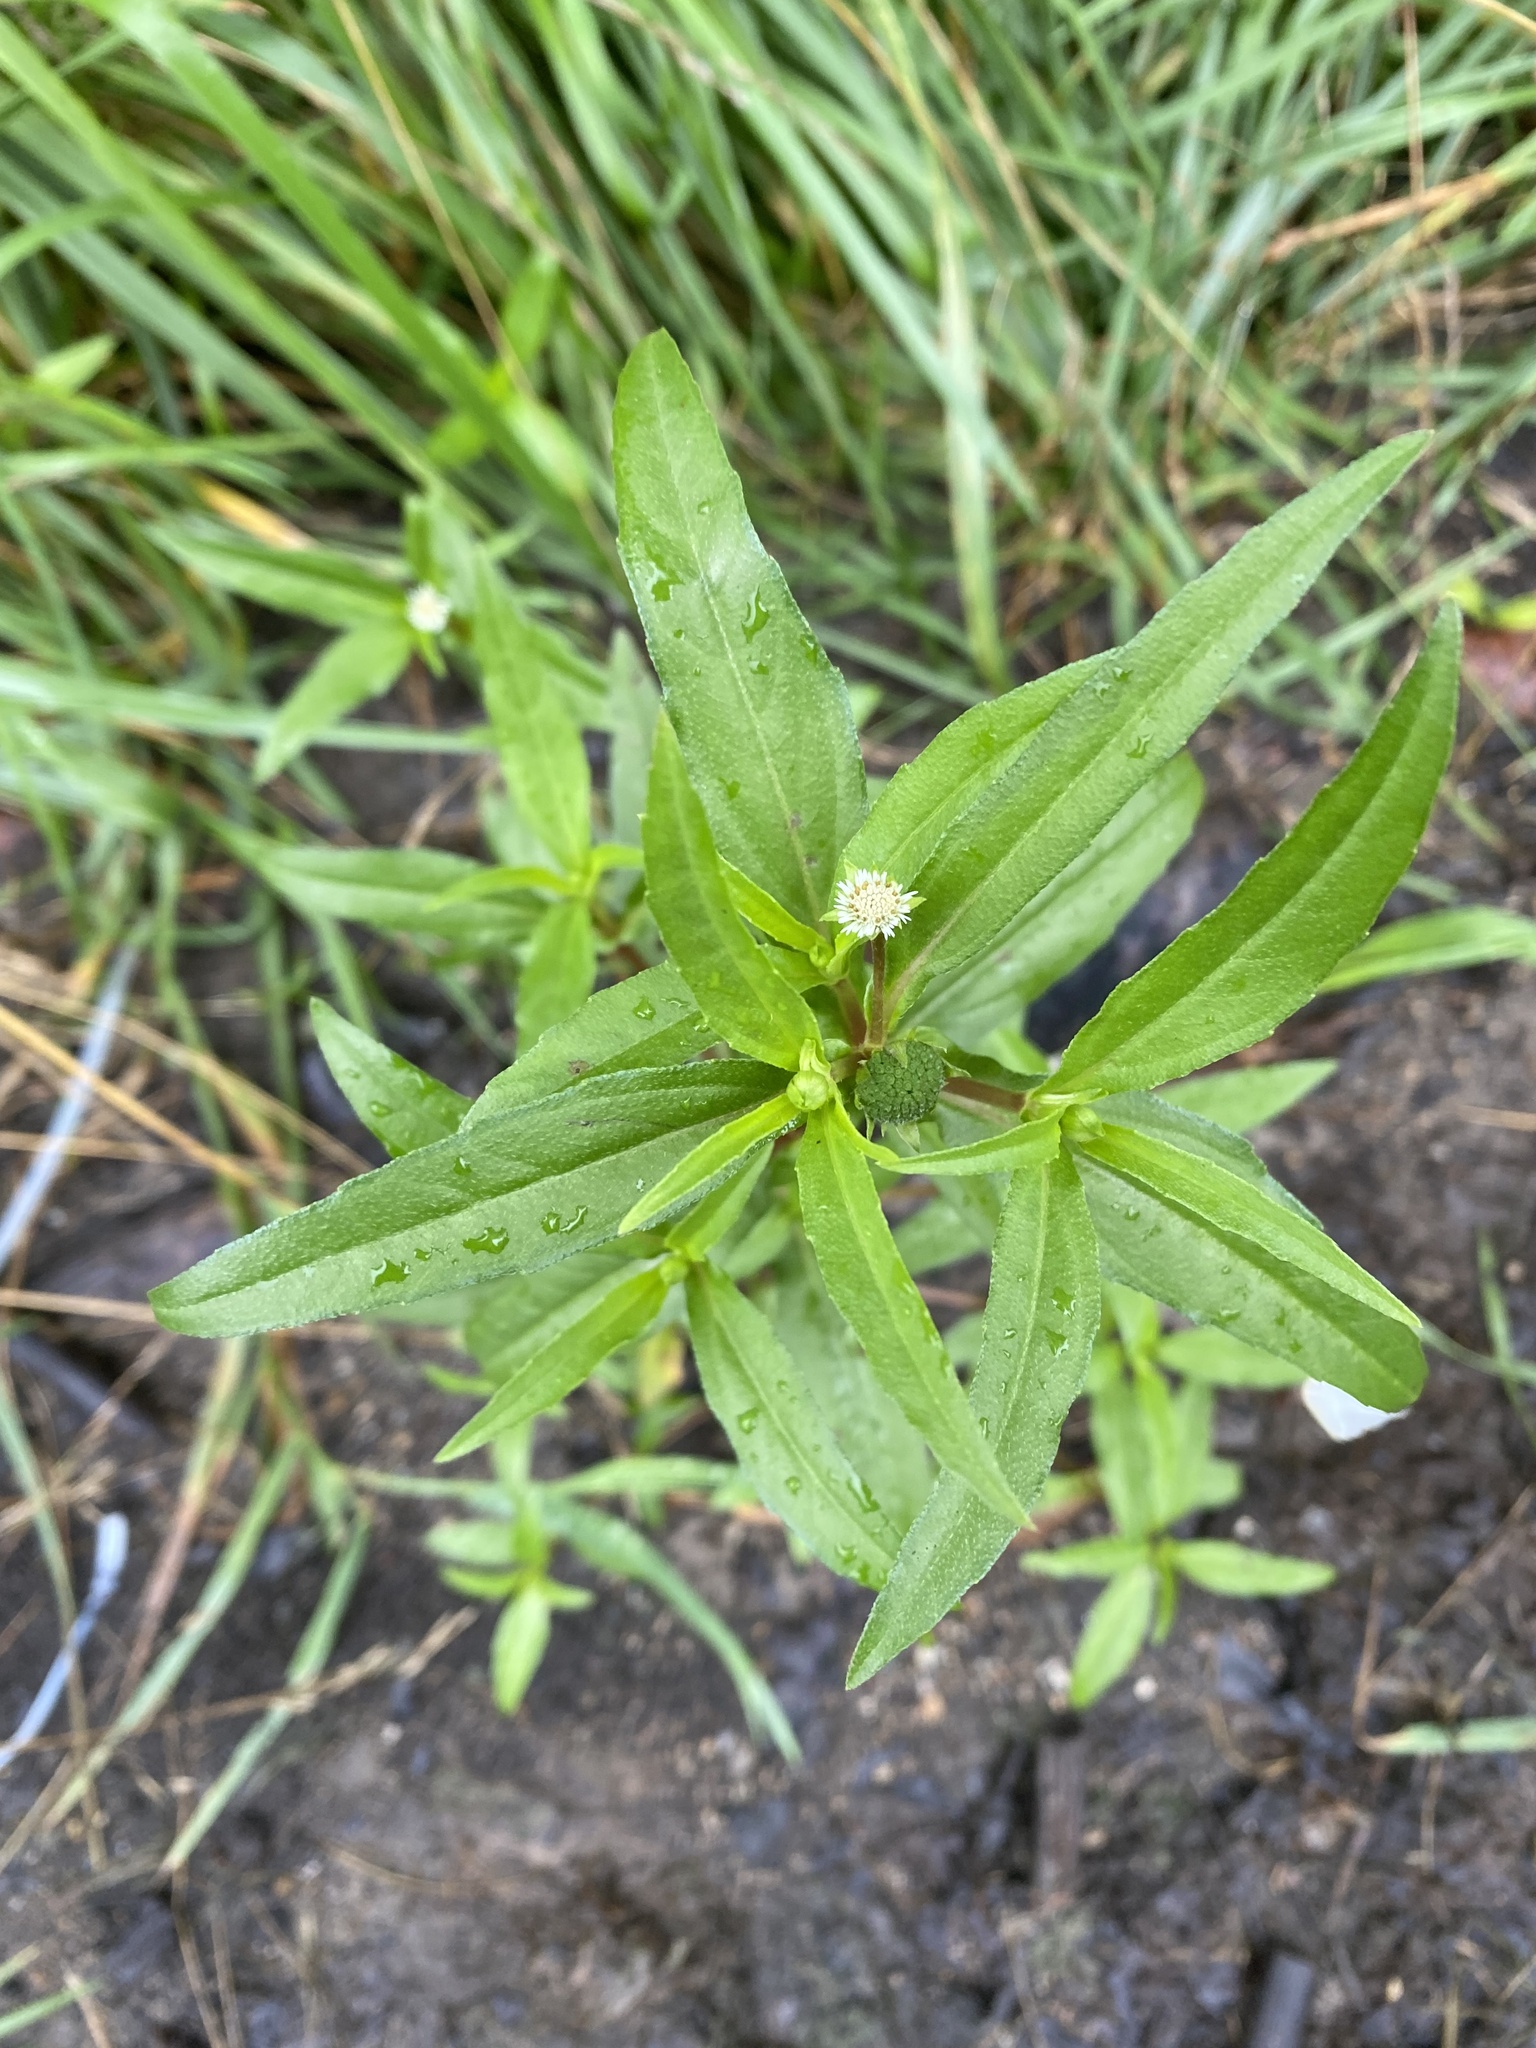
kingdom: Plantae
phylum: Tracheophyta
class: Magnoliopsida
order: Asterales
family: Asteraceae
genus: Eclipta
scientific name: Eclipta prostrata
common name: False daisy
